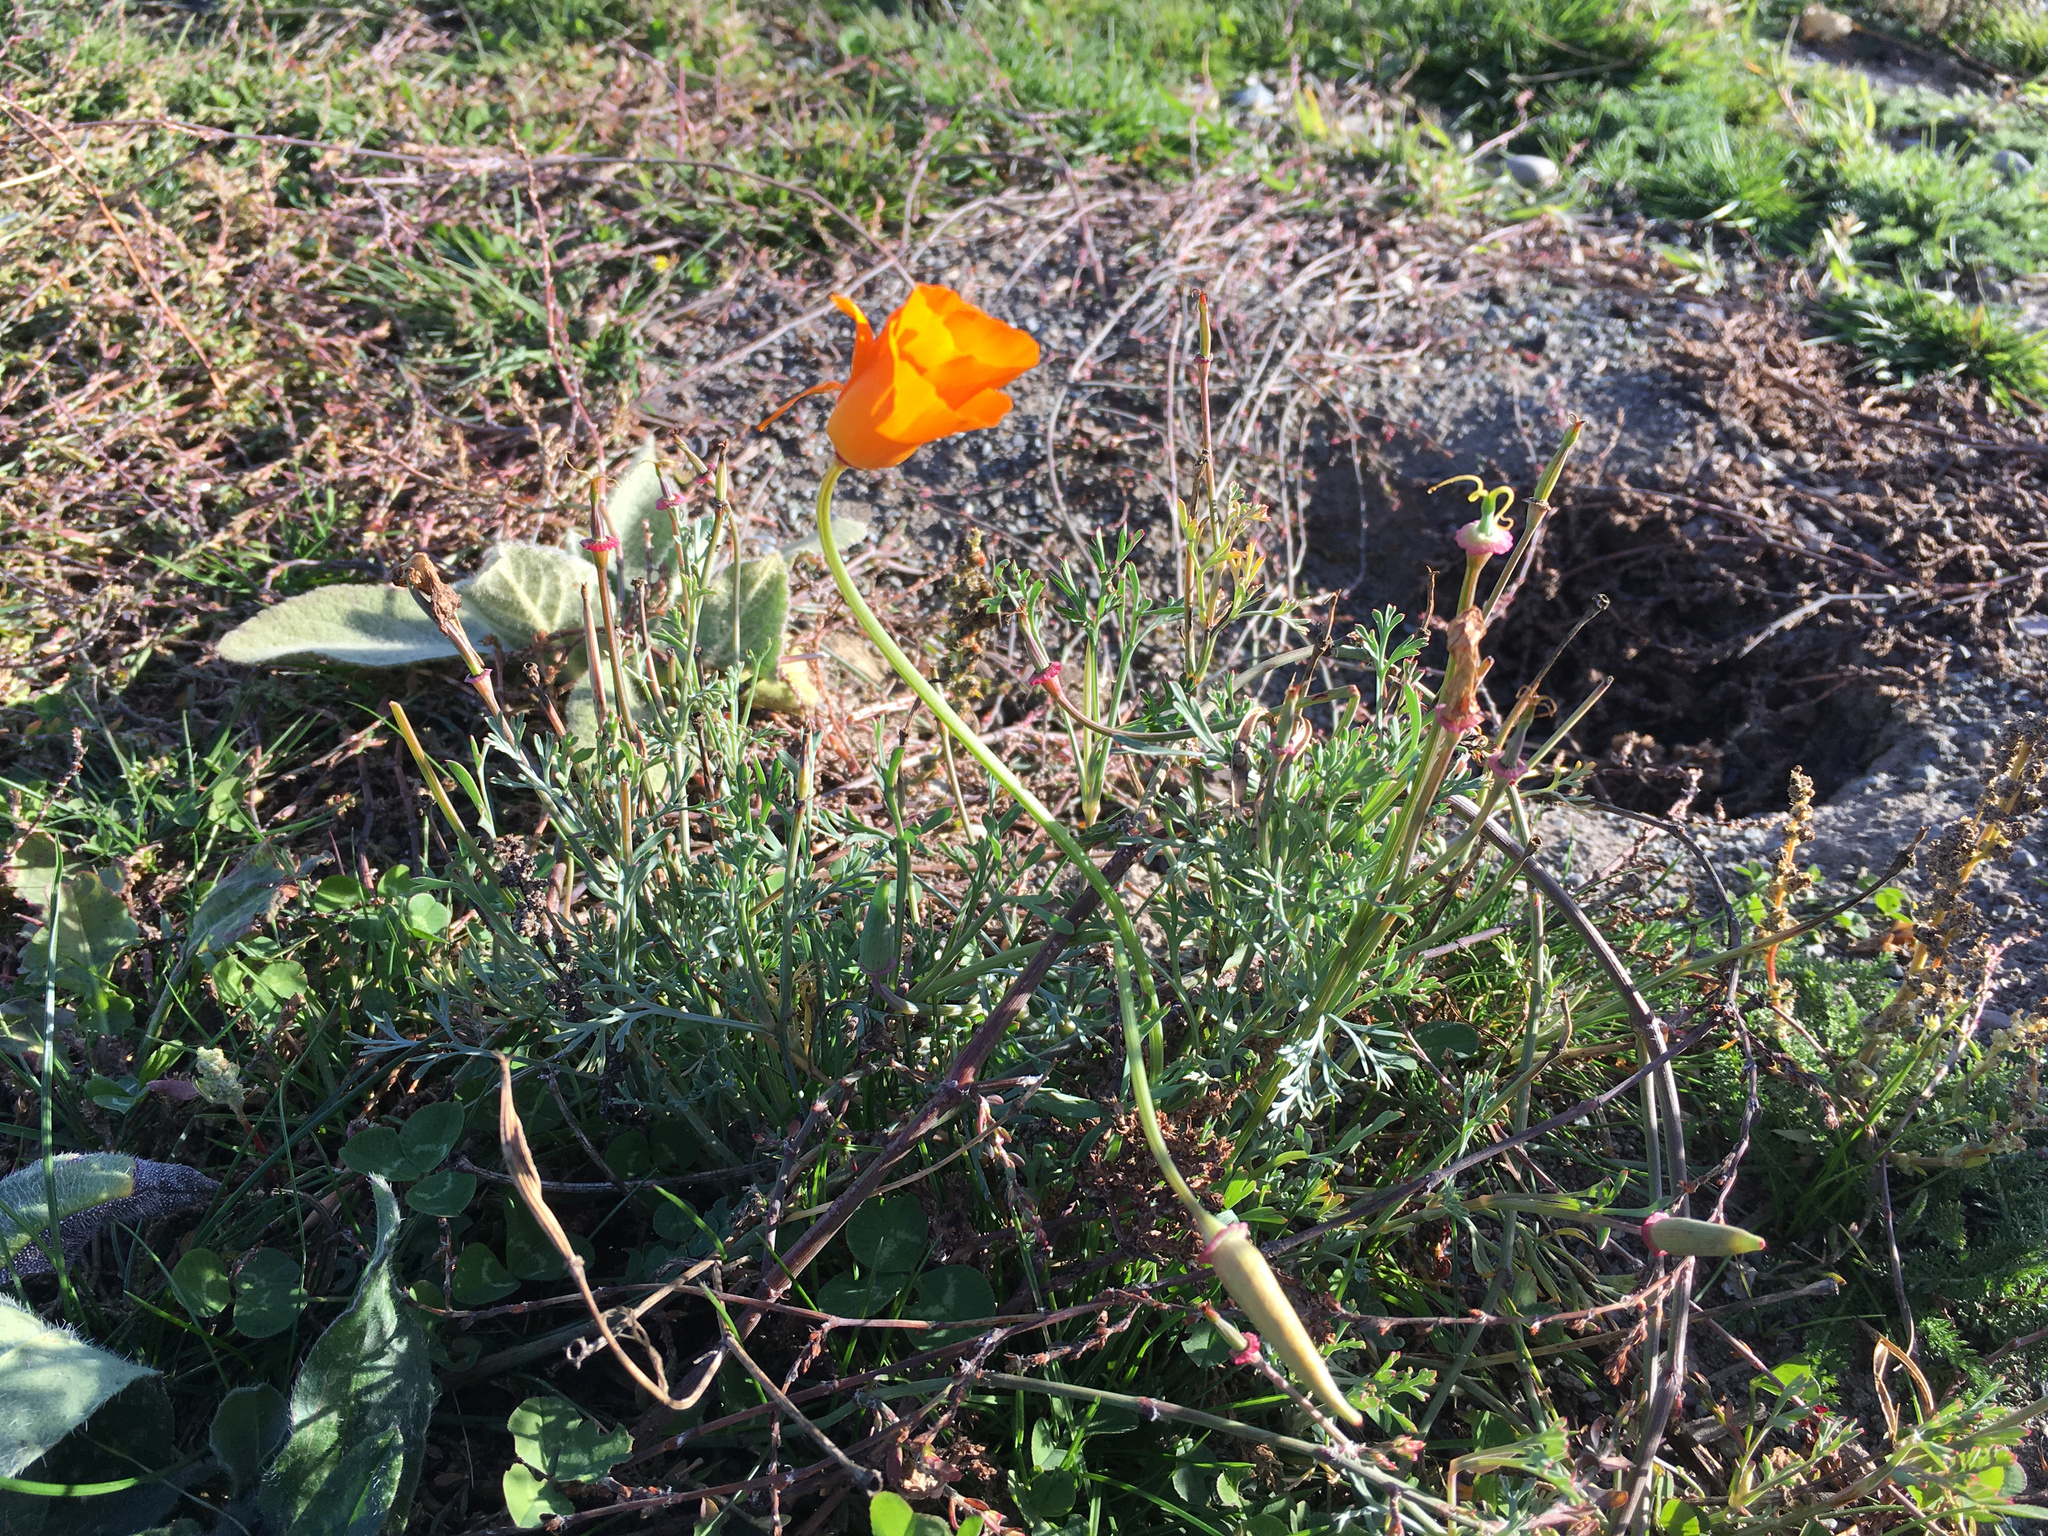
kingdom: Plantae
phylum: Tracheophyta
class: Magnoliopsida
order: Ranunculales
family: Papaveraceae
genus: Eschscholzia
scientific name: Eschscholzia californica
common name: California poppy
